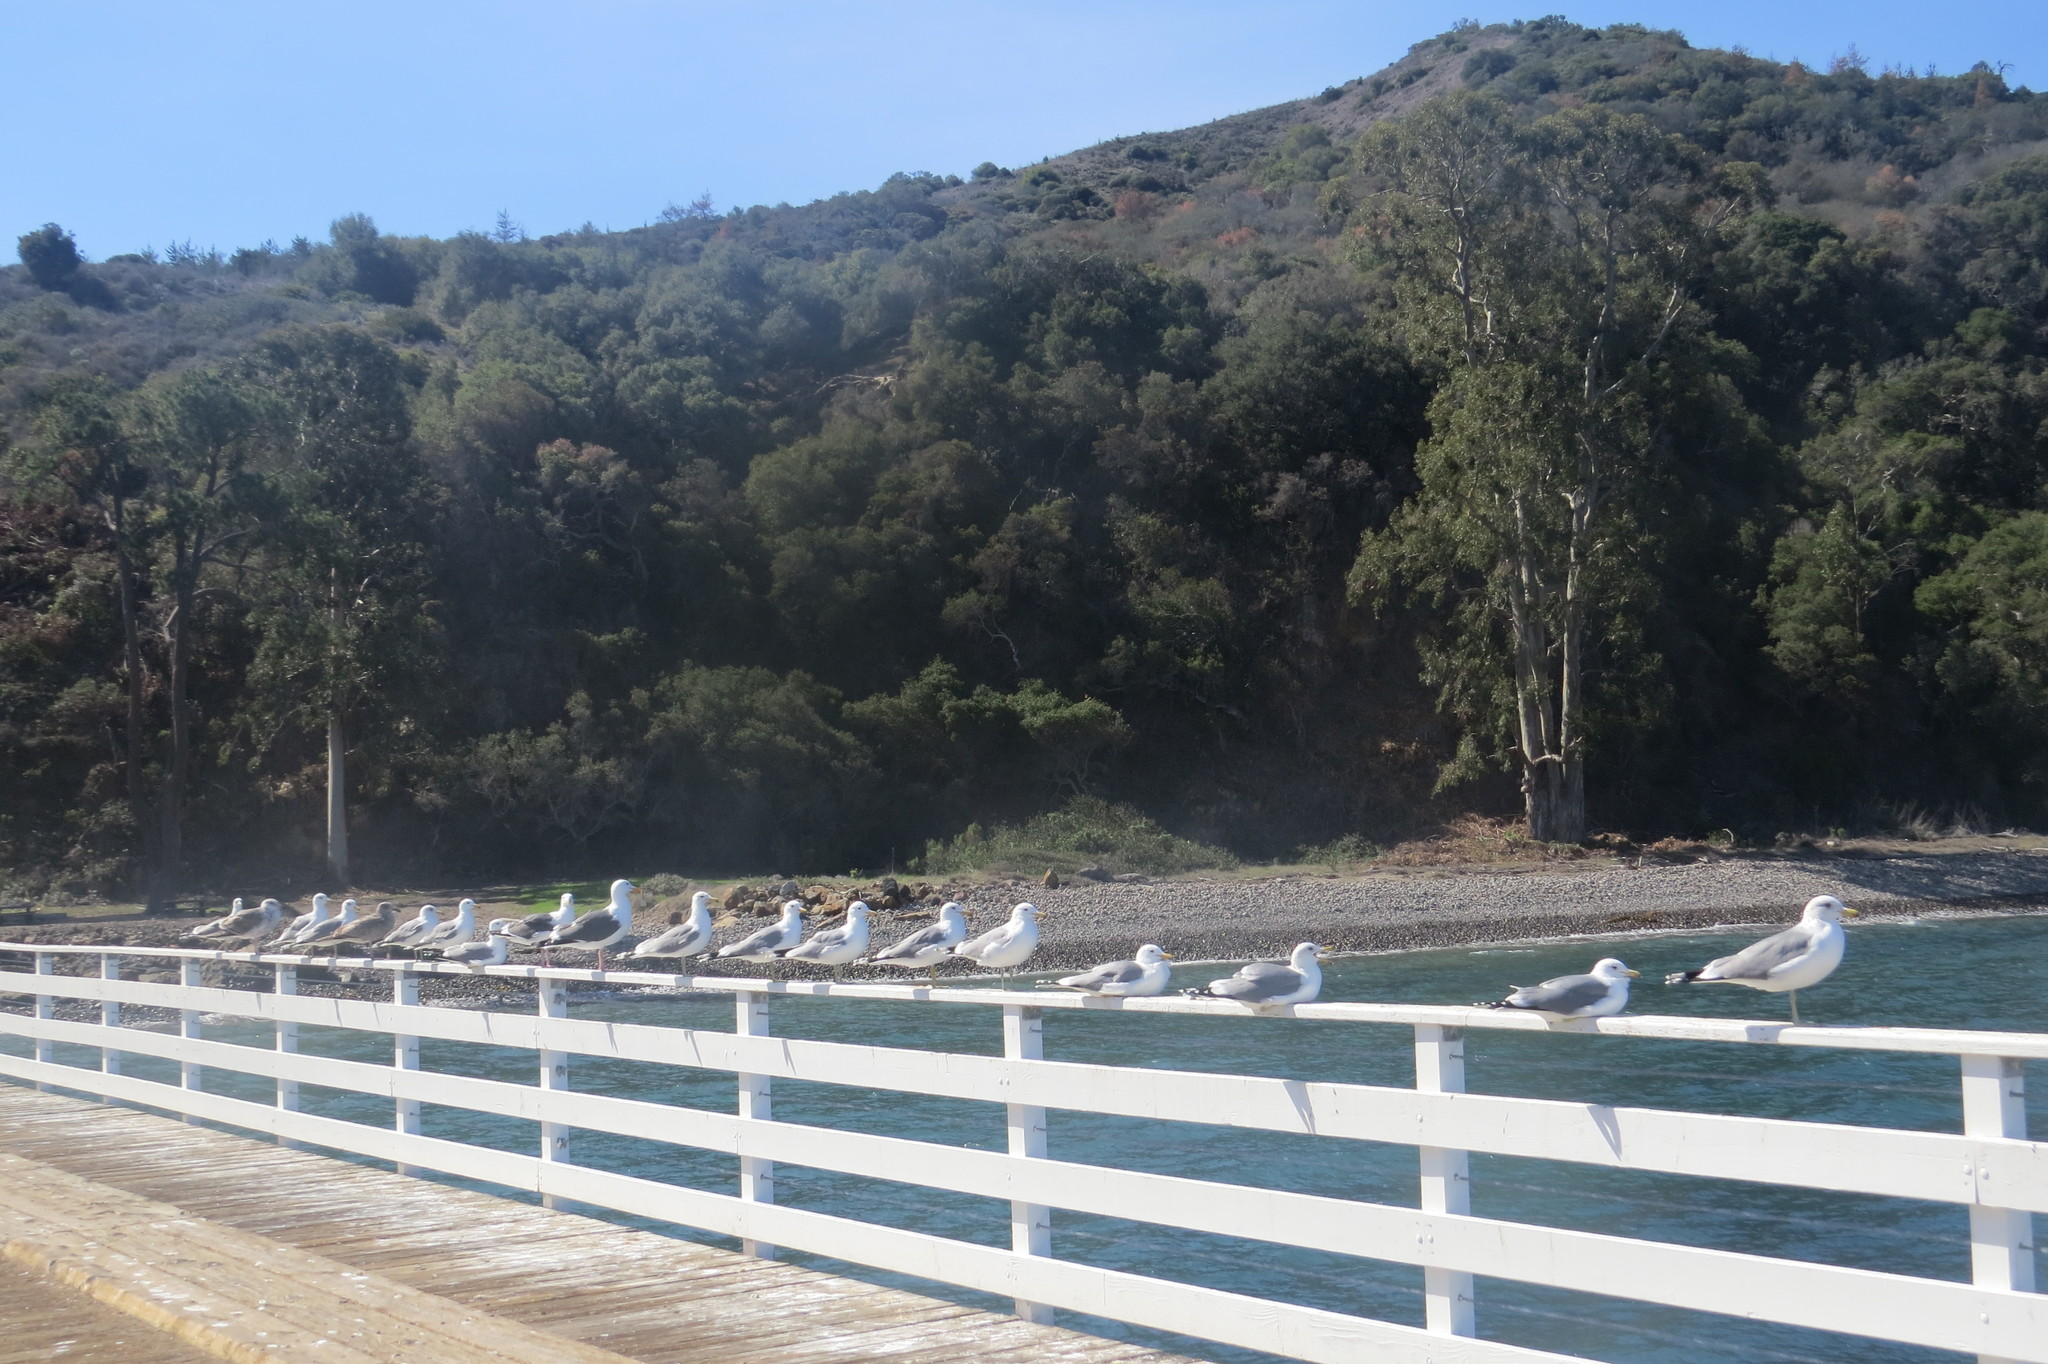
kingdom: Animalia
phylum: Chordata
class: Aves
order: Charadriiformes
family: Laridae
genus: Larus
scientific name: Larus californicus
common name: California gull
